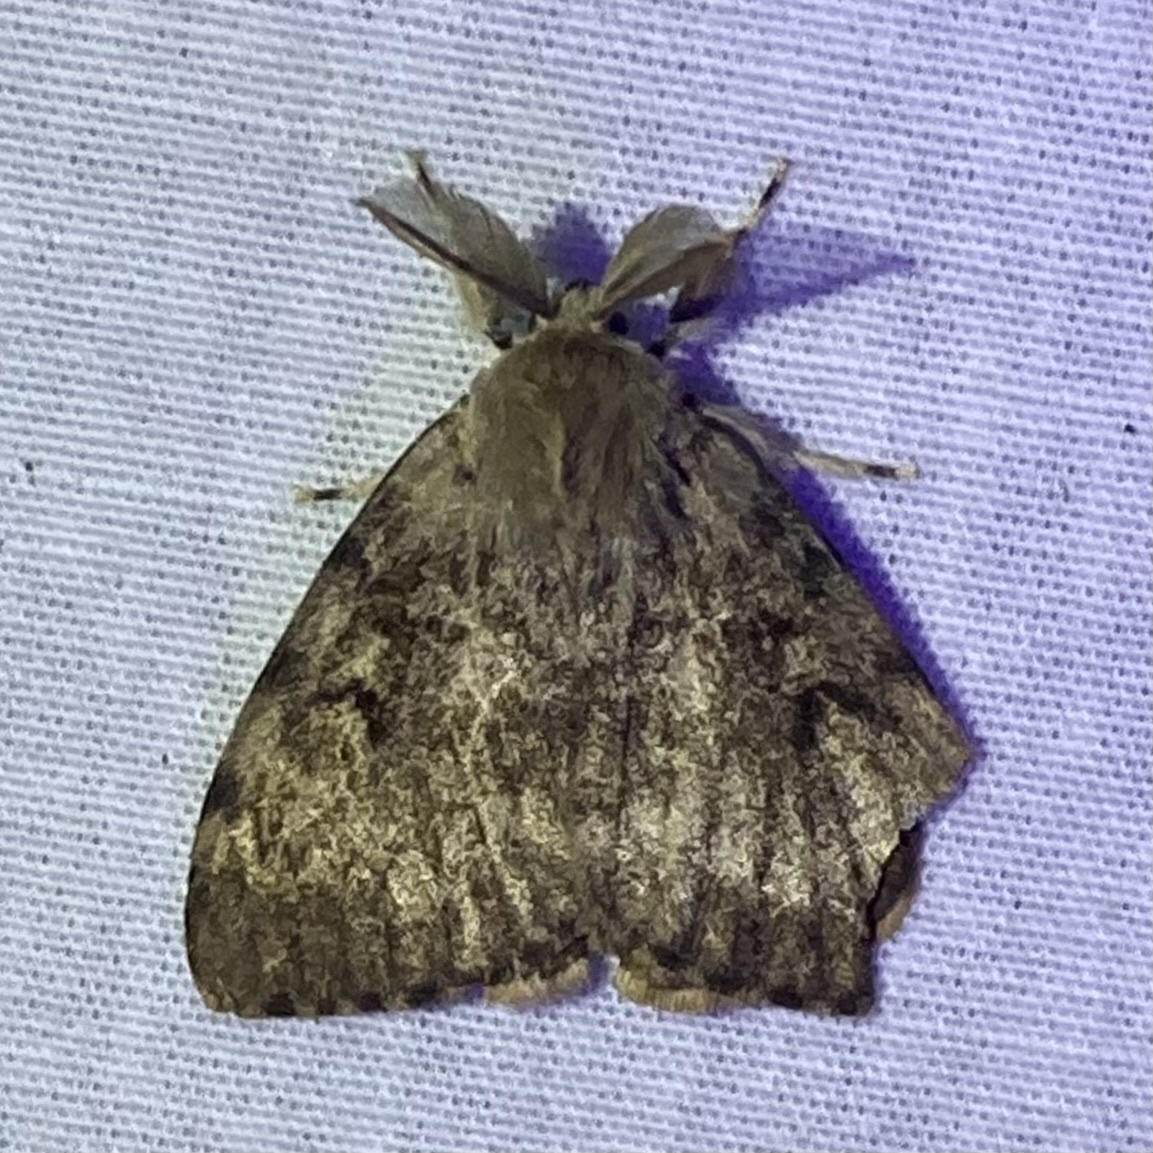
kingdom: Animalia
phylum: Arthropoda
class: Insecta
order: Lepidoptera
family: Erebidae
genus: Lymantria
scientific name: Lymantria dispar
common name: Gypsy moth
